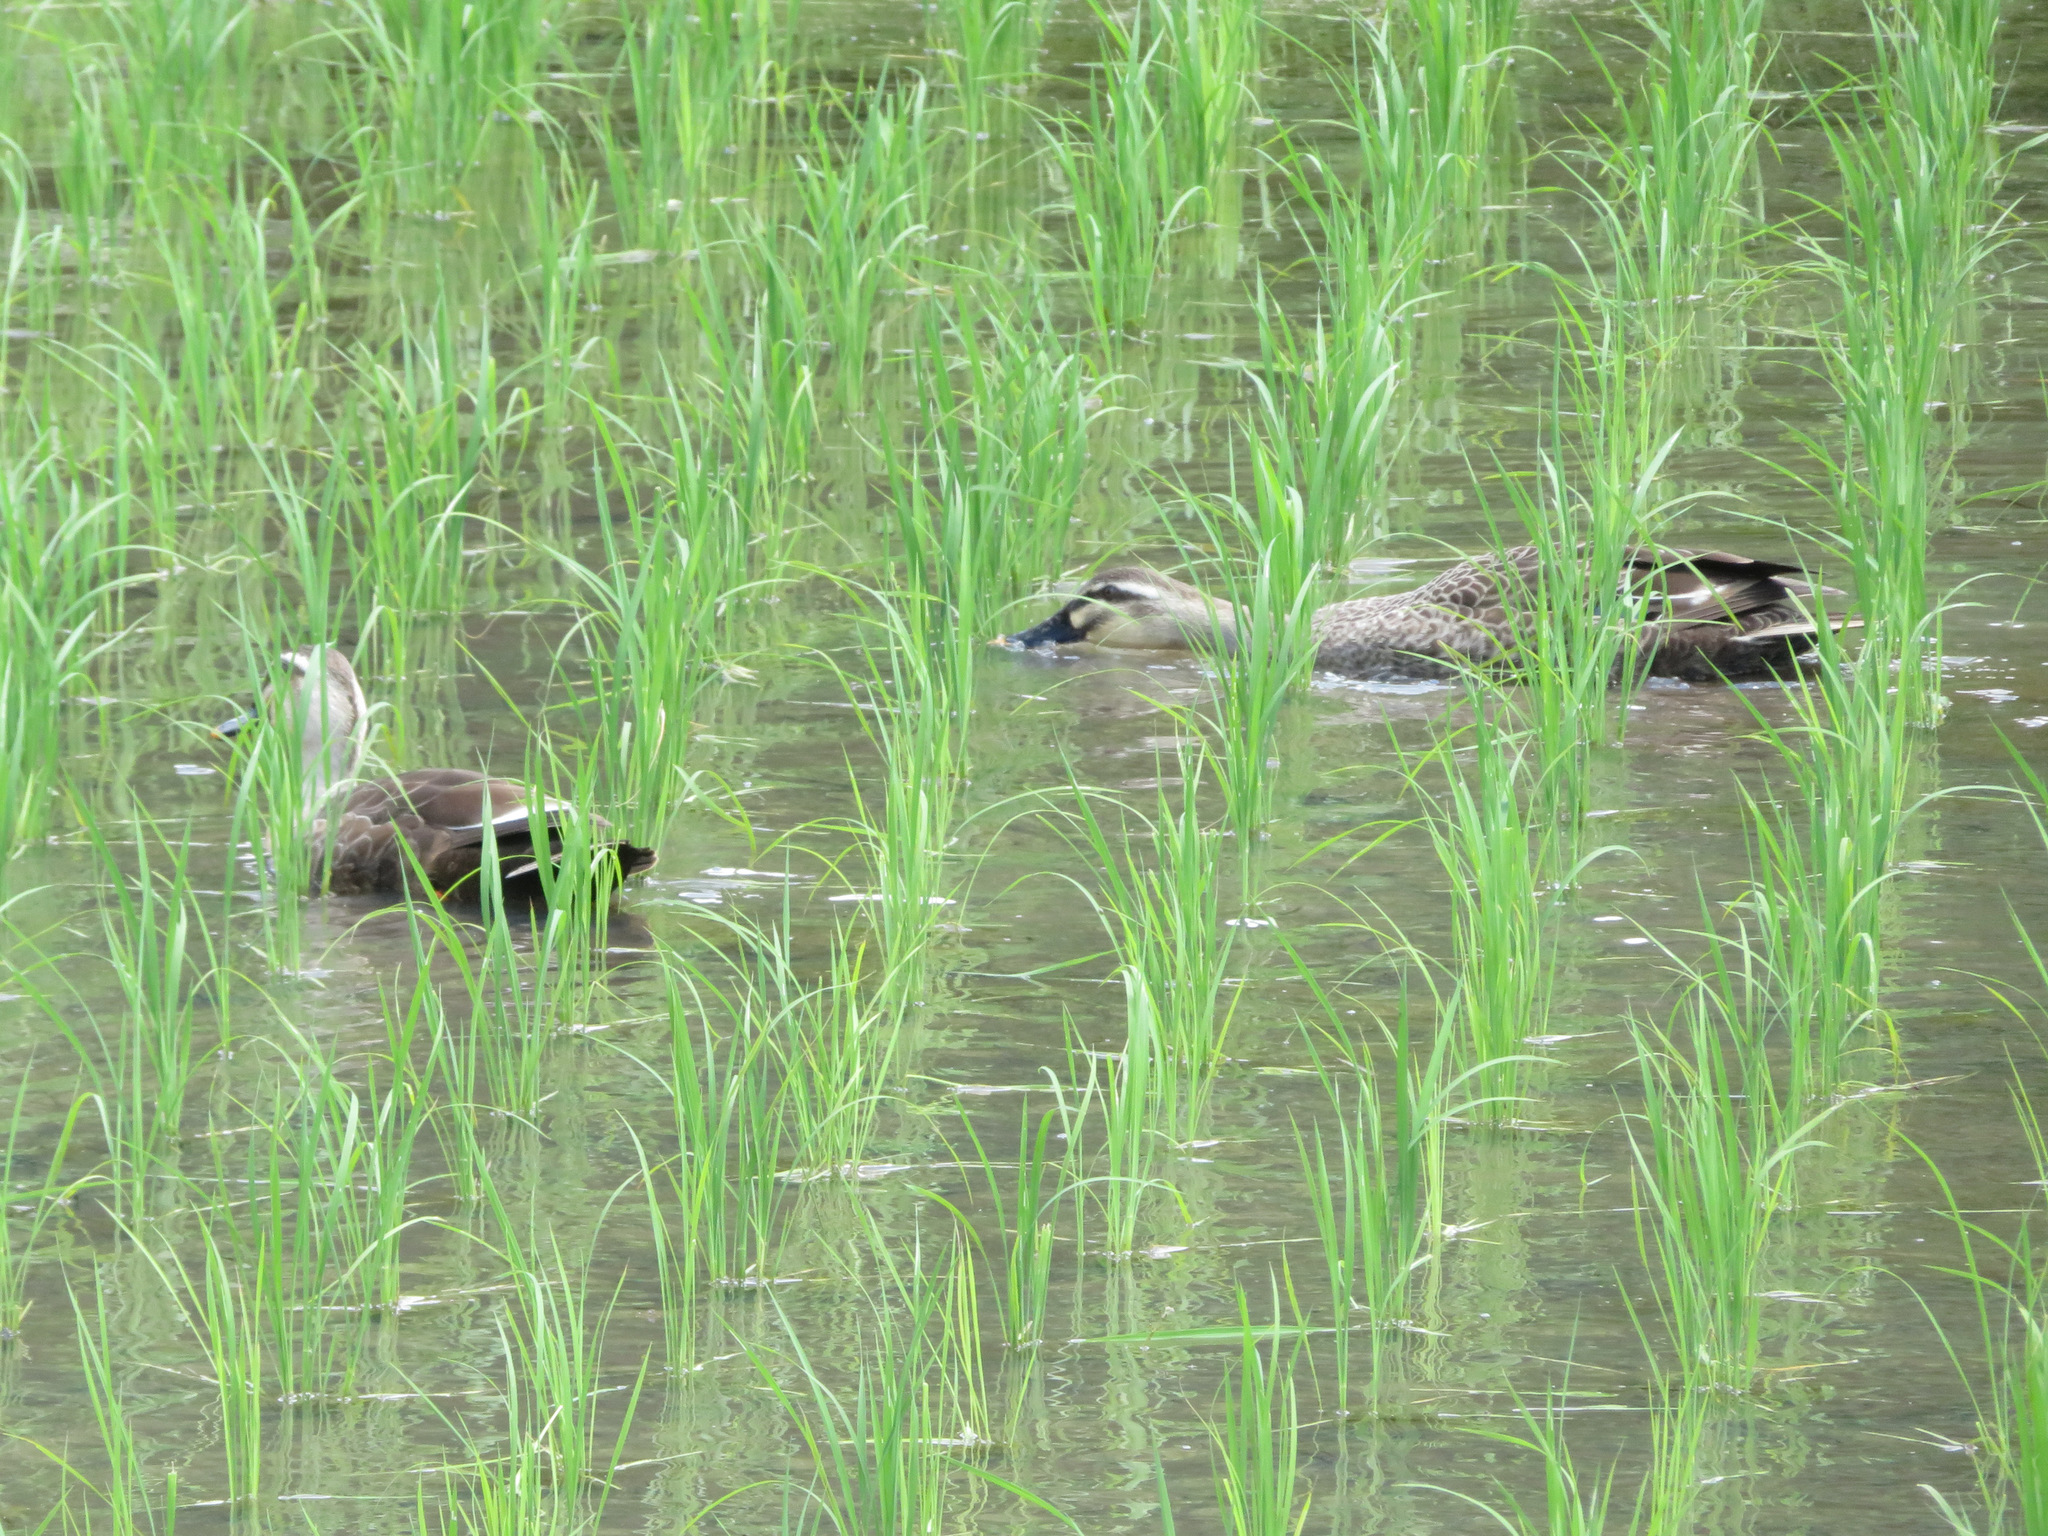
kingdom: Animalia
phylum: Chordata
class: Aves
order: Anseriformes
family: Anatidae
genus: Anas
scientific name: Anas zonorhyncha
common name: Eastern spot-billed duck
